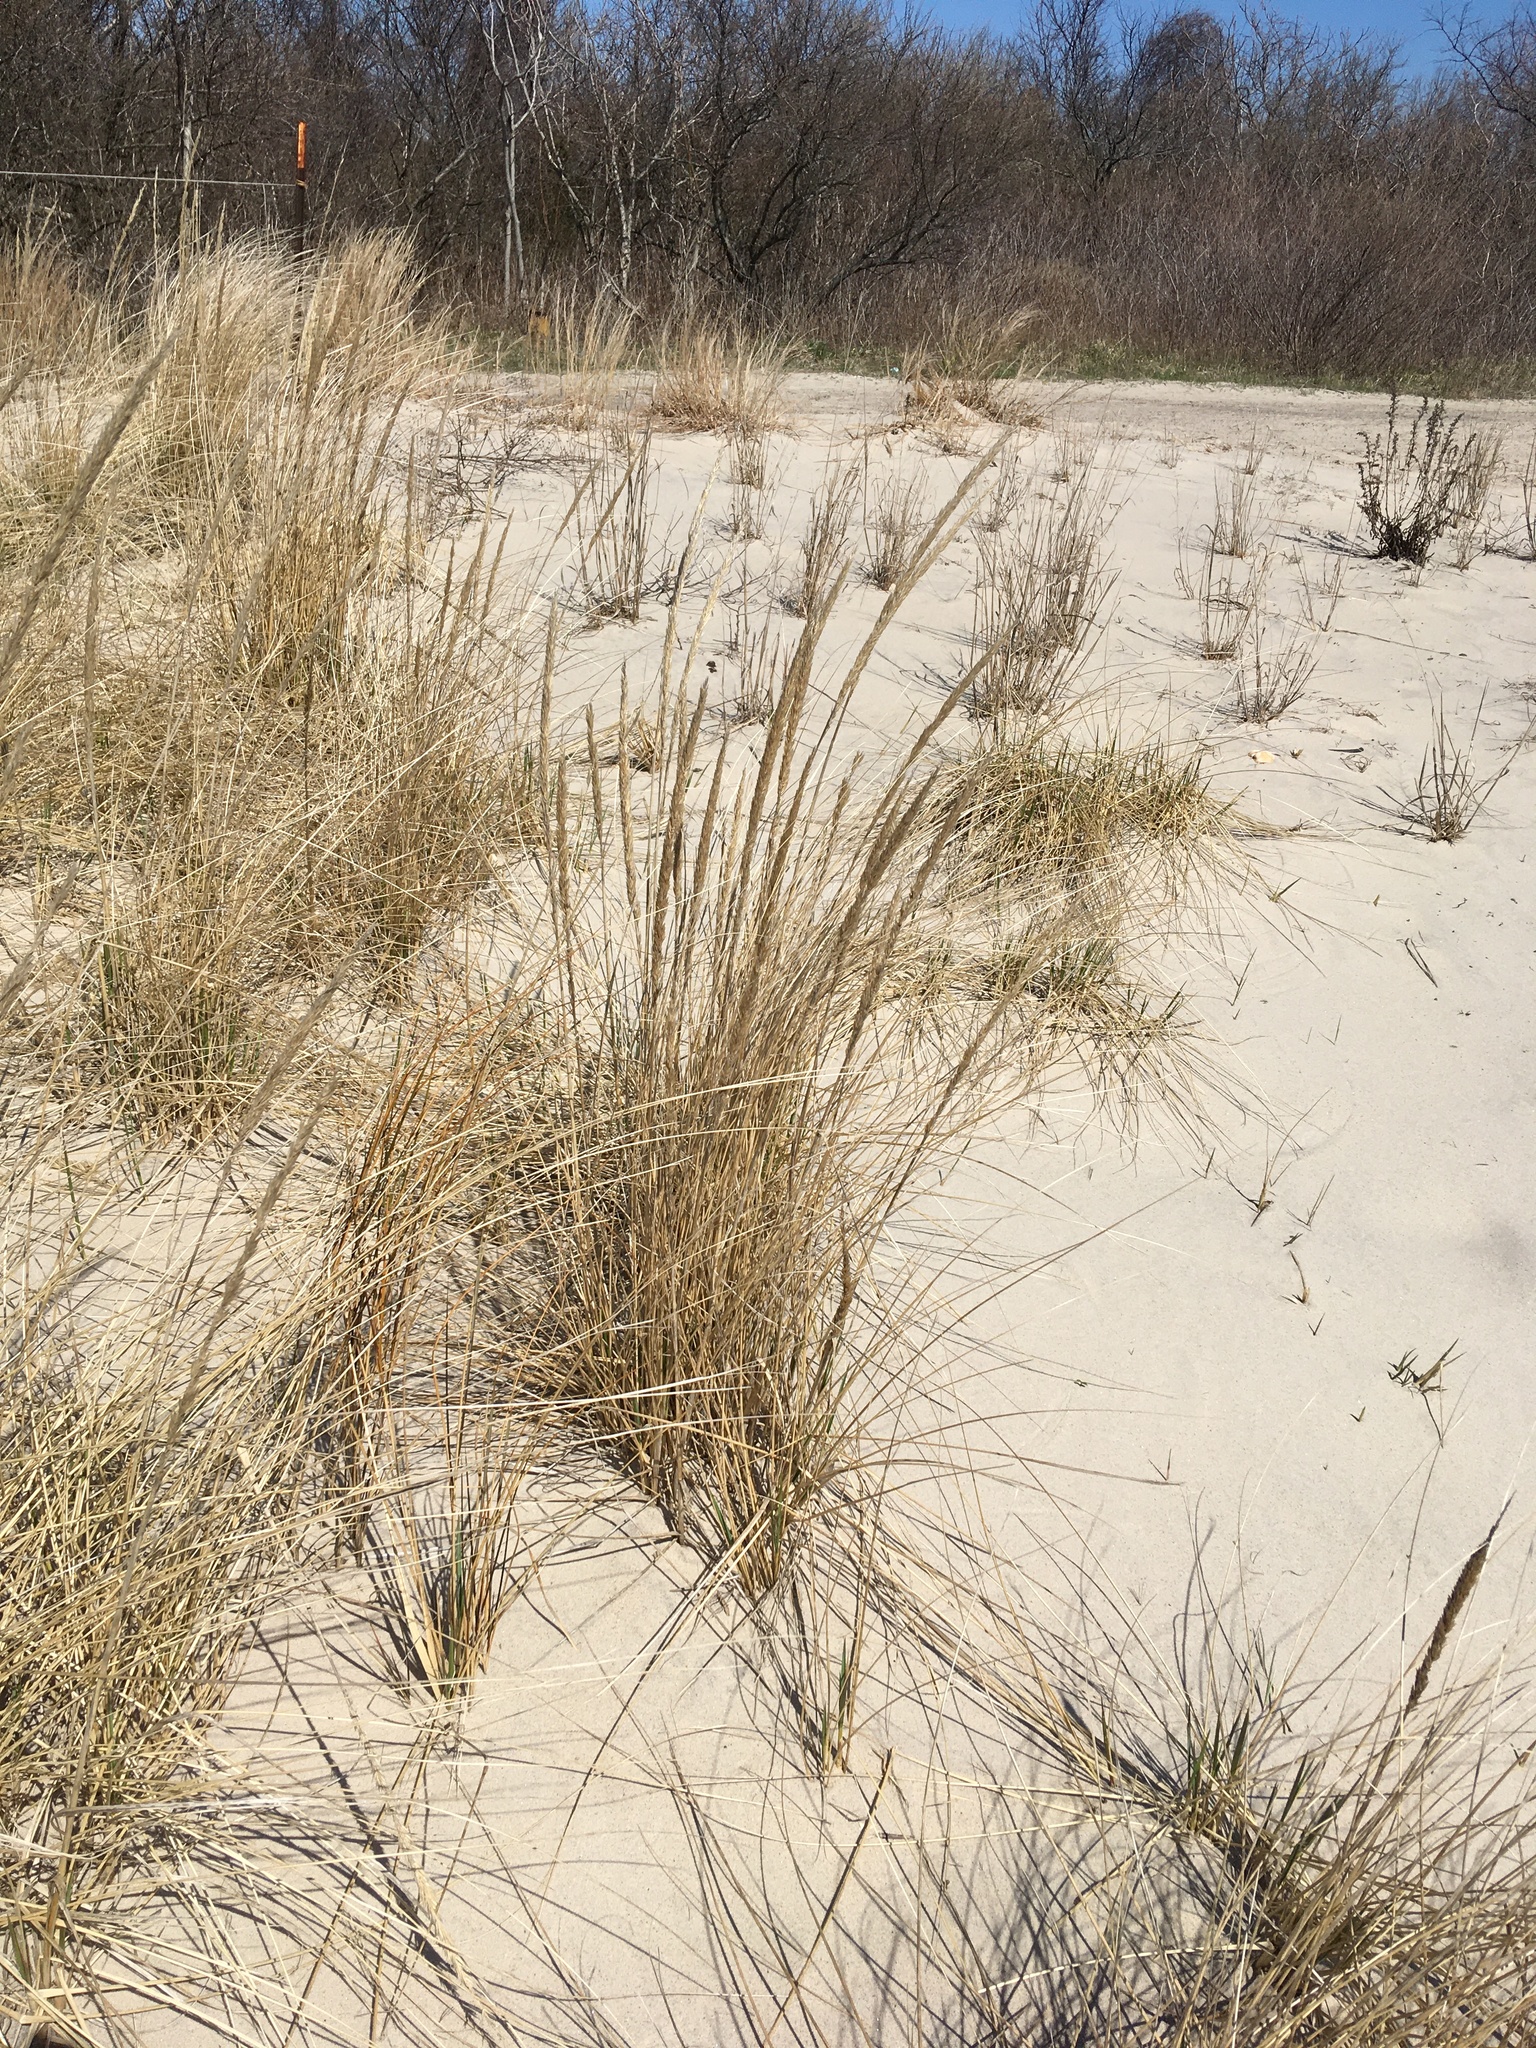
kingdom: Plantae
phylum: Tracheophyta
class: Liliopsida
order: Poales
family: Poaceae
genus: Calamagrostis
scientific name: Calamagrostis breviligulata
